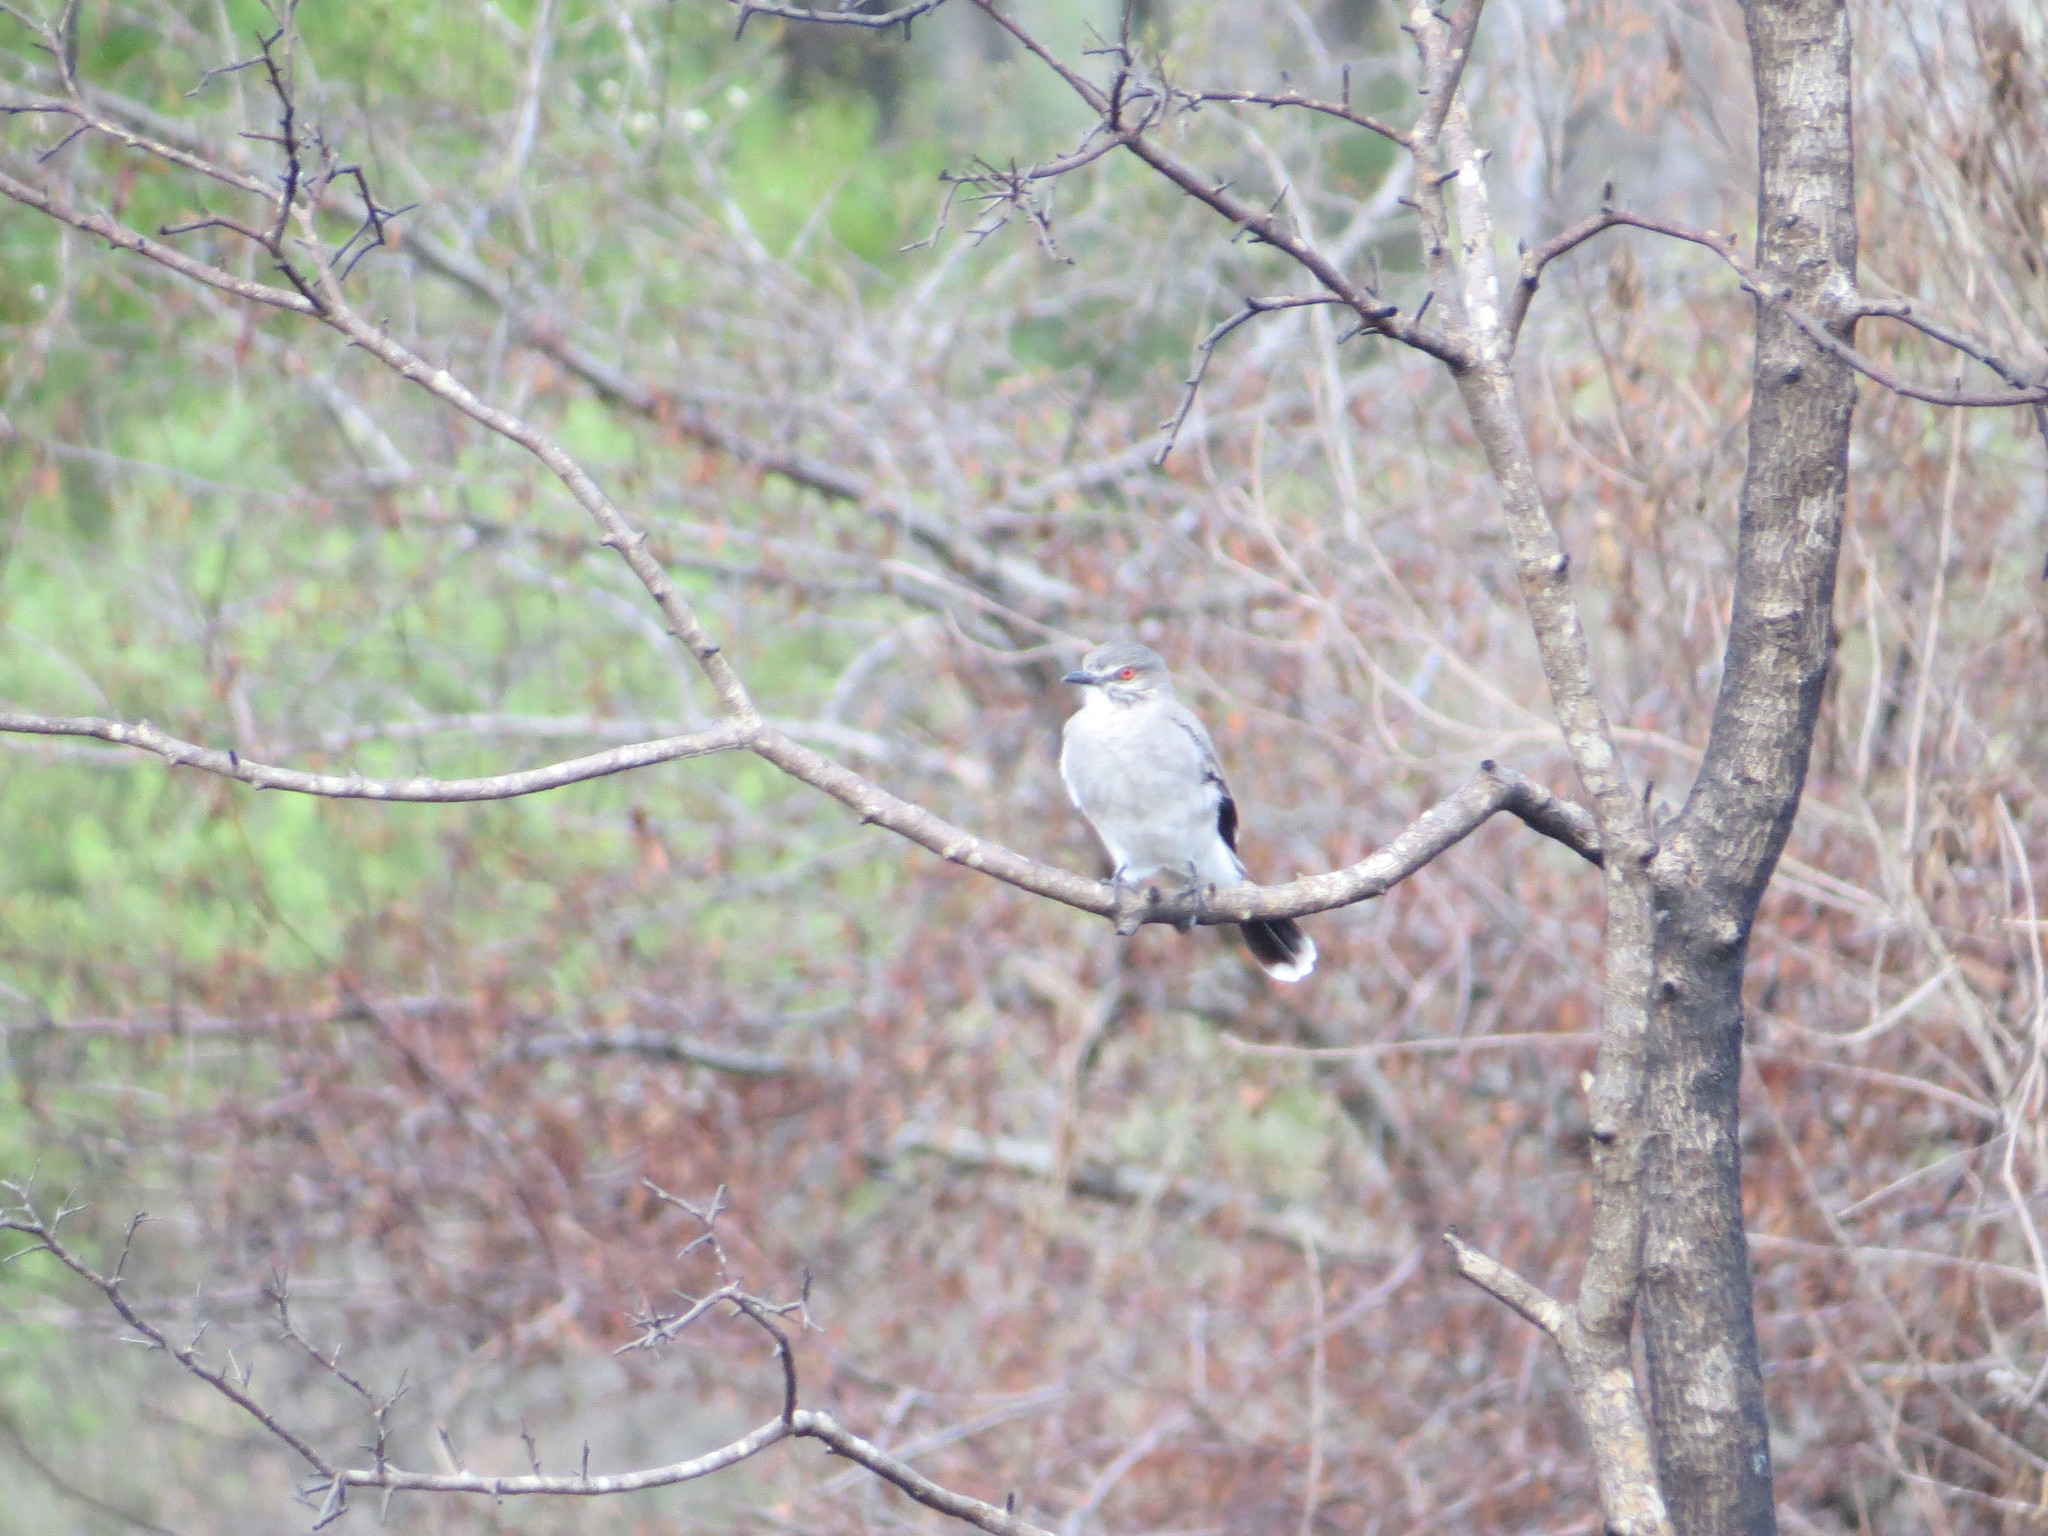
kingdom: Animalia
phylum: Chordata
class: Aves
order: Passeriformes
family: Tyrannidae
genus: Xolmis
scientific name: Xolmis cinereus
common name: Grey monjita
